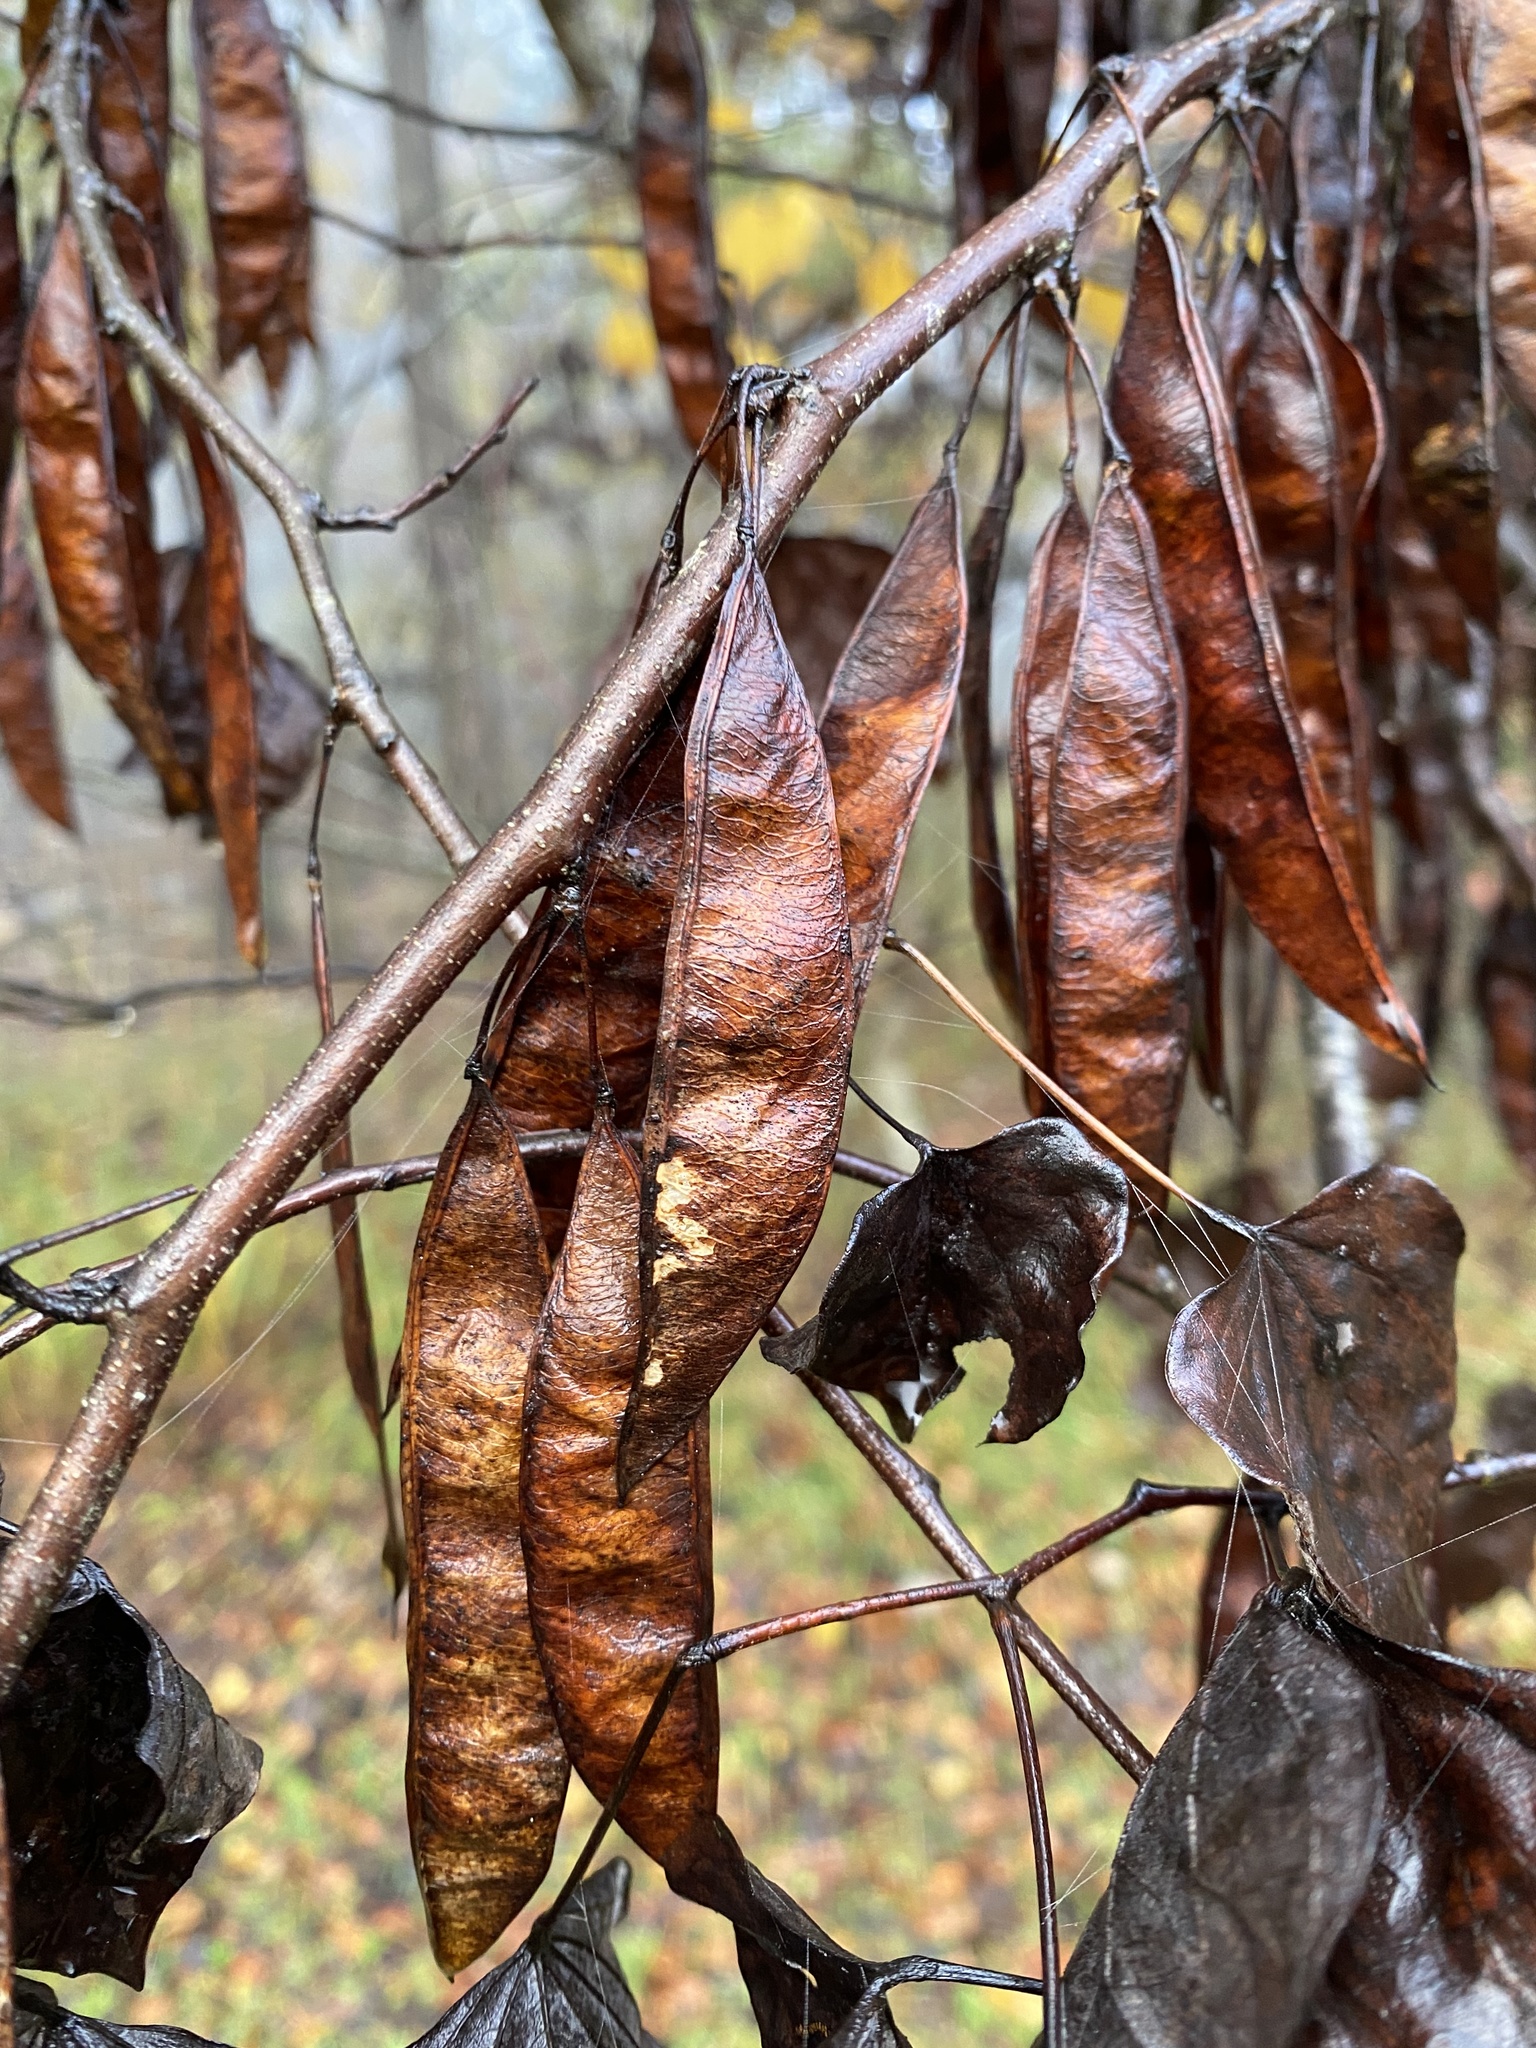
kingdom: Plantae
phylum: Tracheophyta
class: Magnoliopsida
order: Fabales
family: Fabaceae
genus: Cercis
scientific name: Cercis canadensis
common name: Eastern redbud
